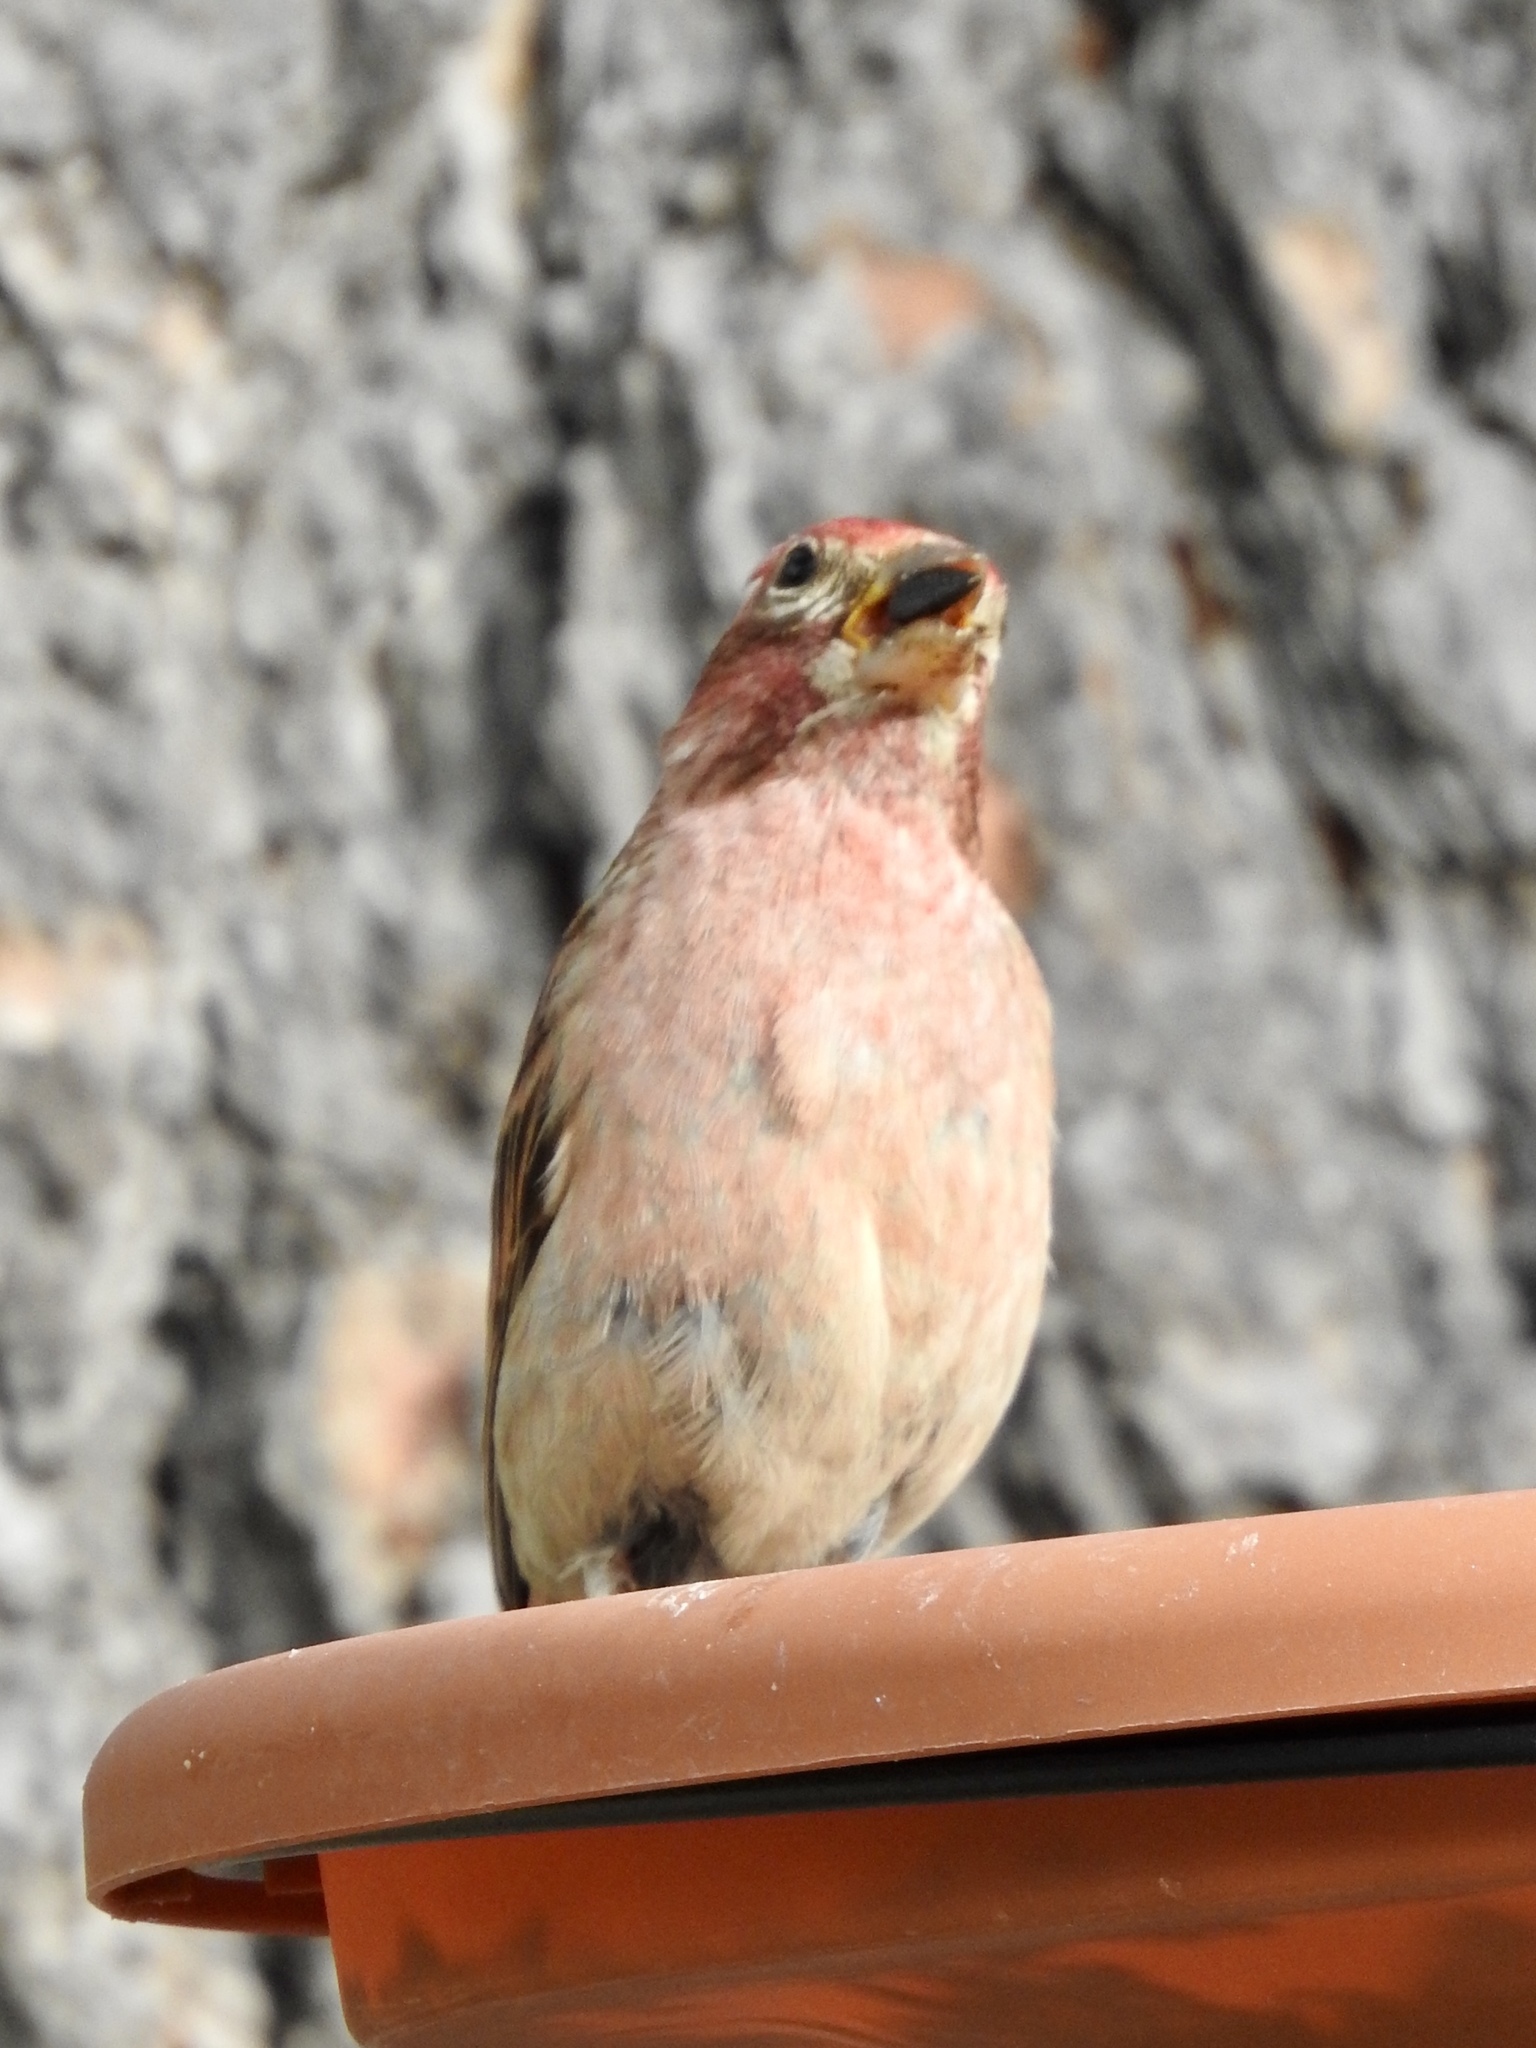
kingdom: Animalia
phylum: Chordata
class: Aves
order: Passeriformes
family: Fringillidae
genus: Haemorhous
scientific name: Haemorhous cassinii
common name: Cassin's finch
